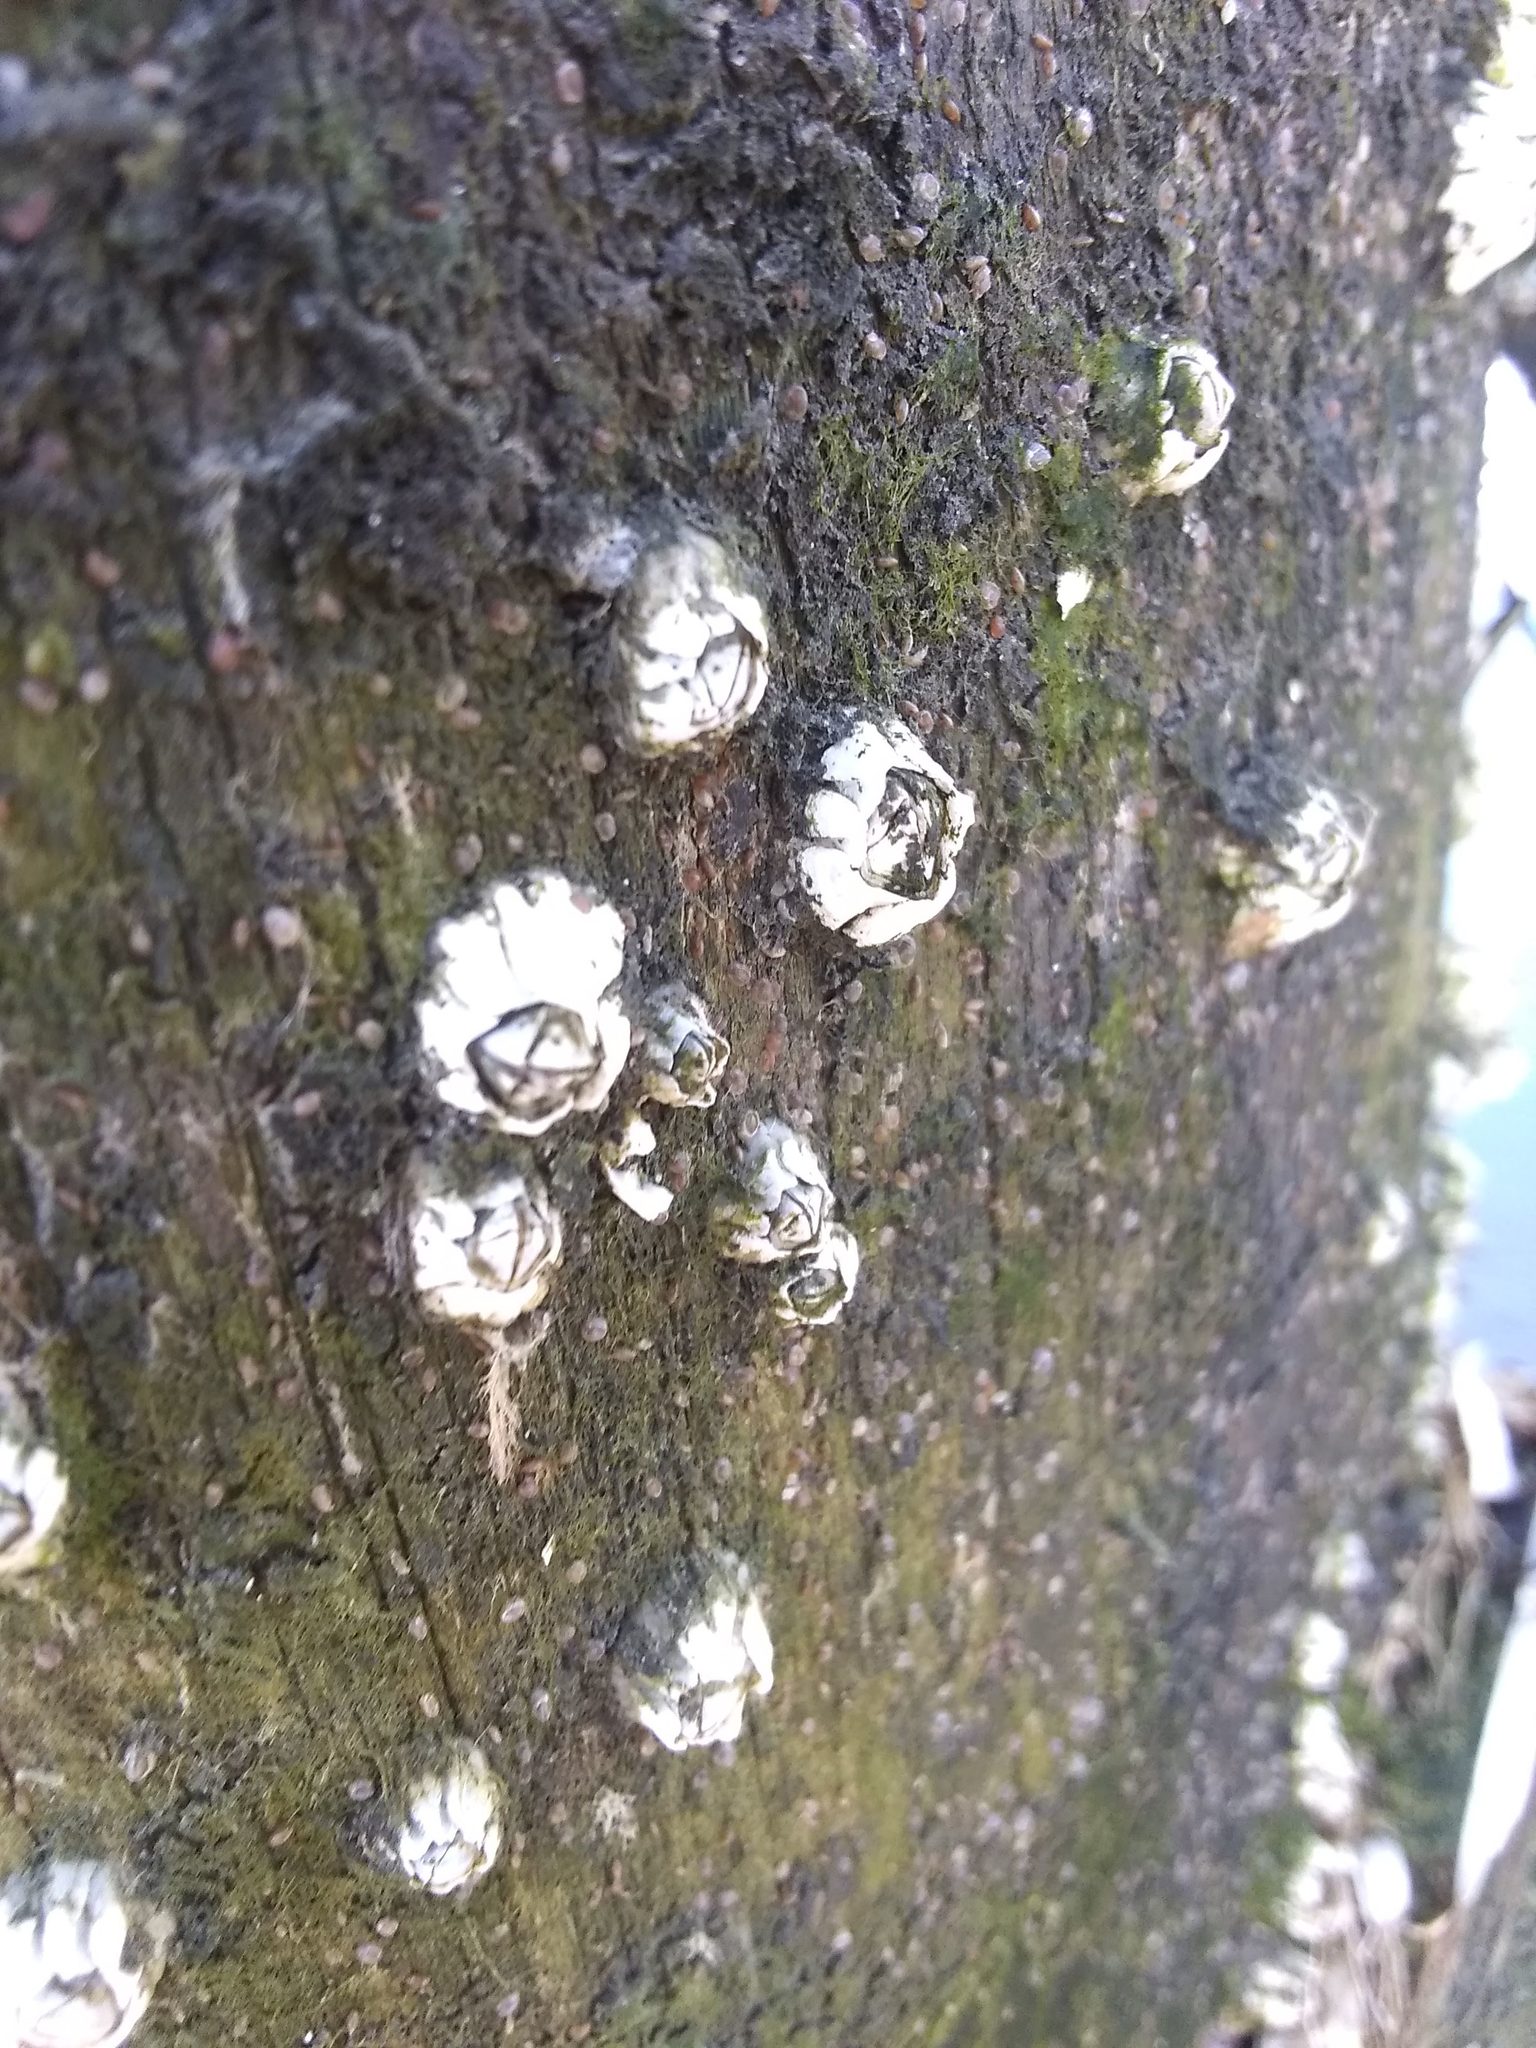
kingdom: Animalia
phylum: Arthropoda
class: Maxillopoda
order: Sessilia
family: Archaeobalanidae
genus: Semibalanus
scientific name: Semibalanus balanoides
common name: Acorn barnacle
